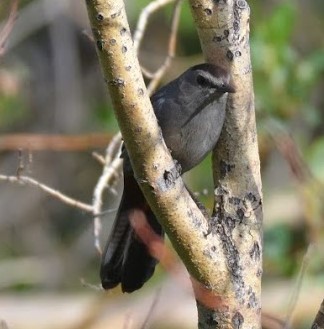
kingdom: Animalia
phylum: Chordata
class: Aves
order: Passeriformes
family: Mimidae
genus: Dumetella
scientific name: Dumetella carolinensis
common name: Gray catbird
